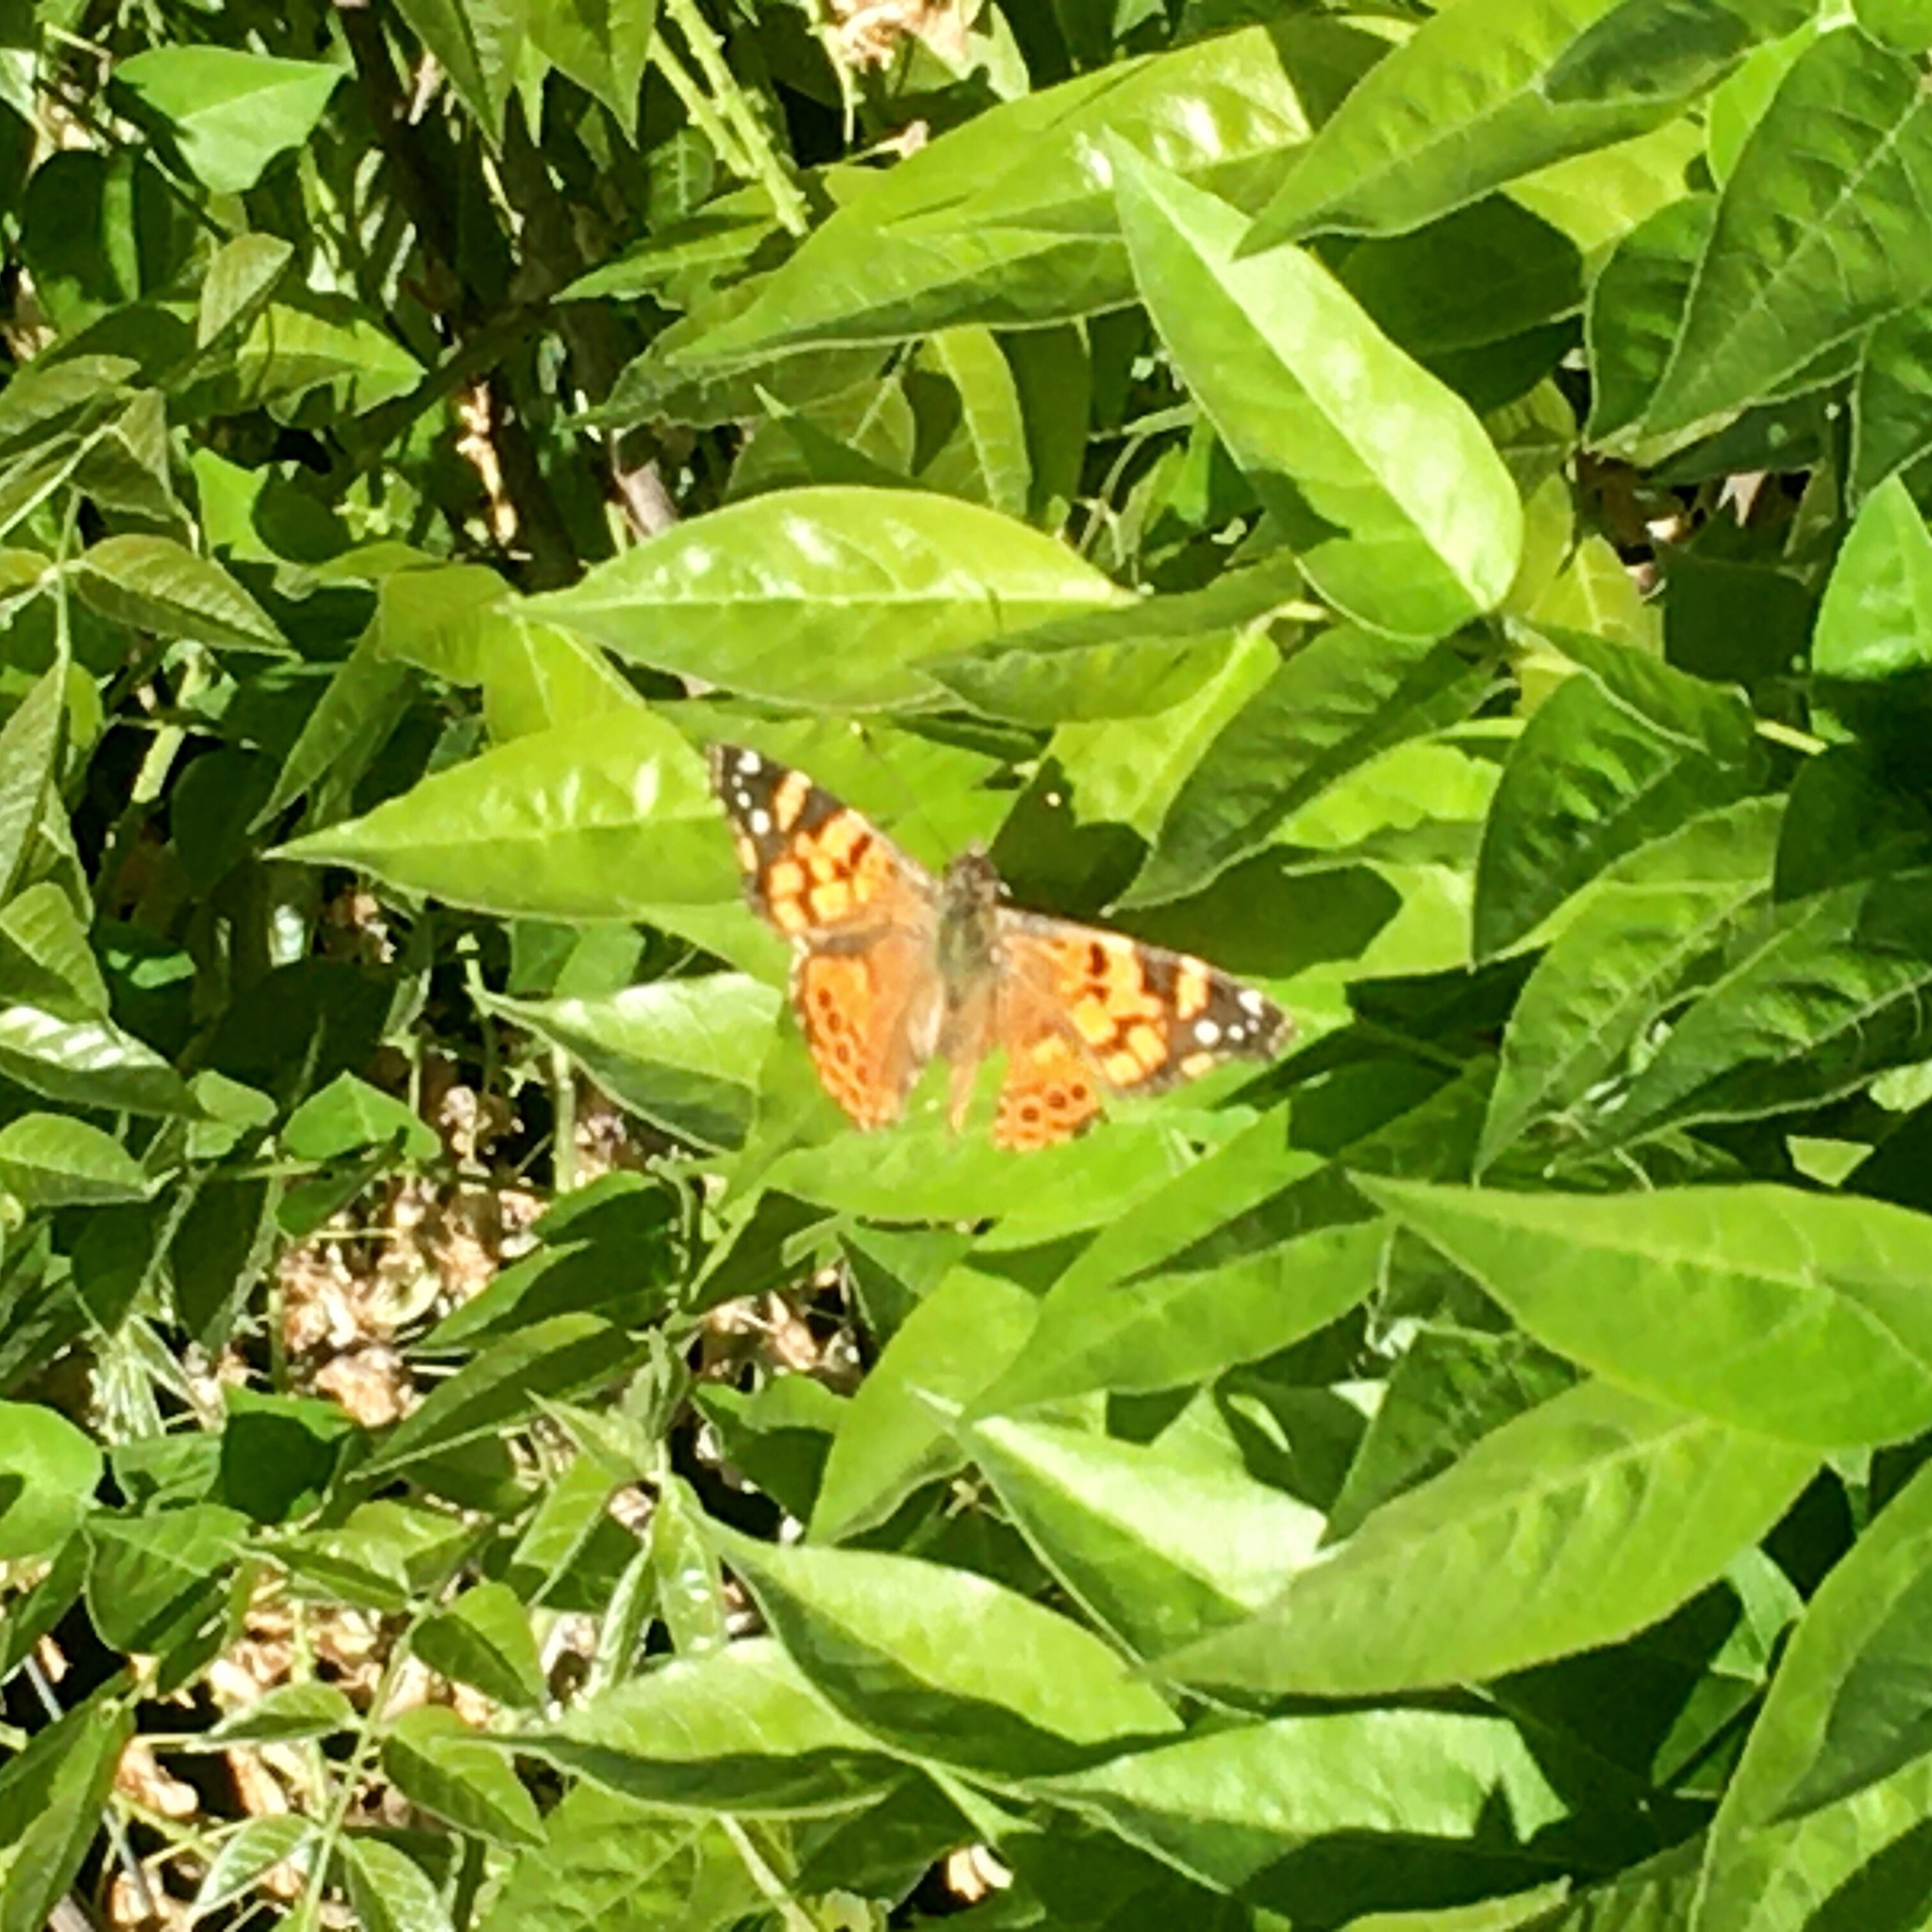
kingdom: Animalia
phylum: Arthropoda
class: Insecta
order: Lepidoptera
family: Nymphalidae
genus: Vanessa
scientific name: Vanessa carye
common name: Subtropical lady
